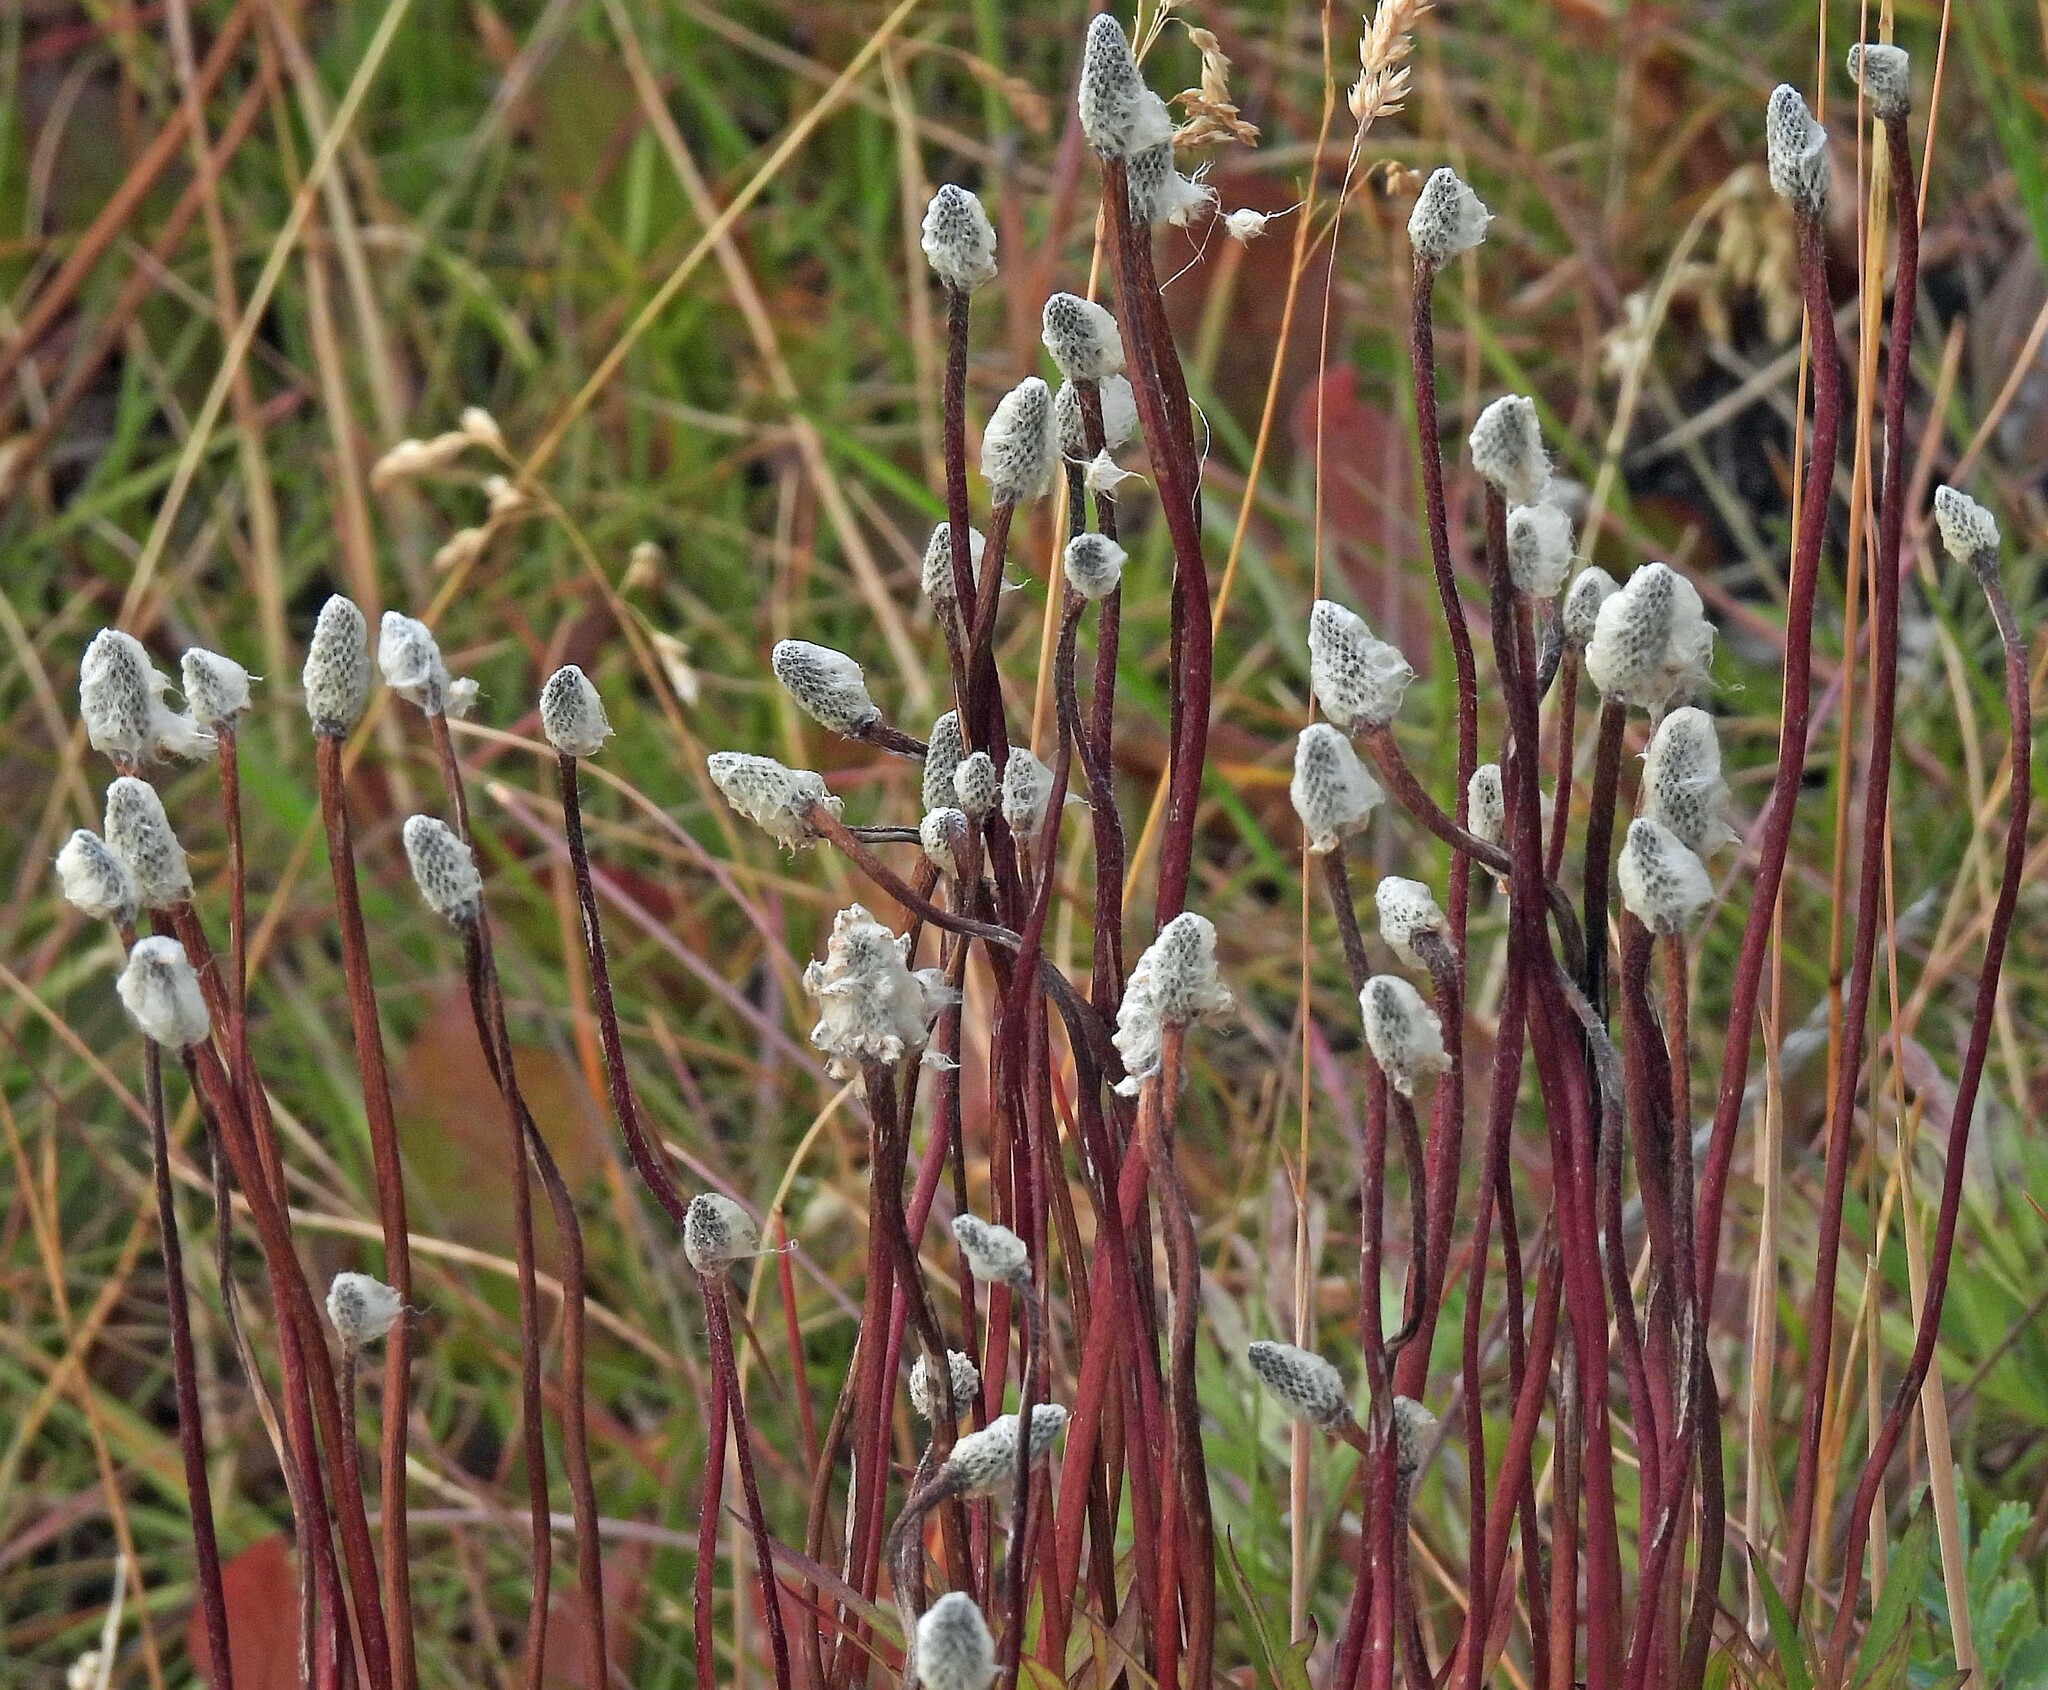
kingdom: Plantae
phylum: Tracheophyta
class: Magnoliopsida
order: Ranunculales
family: Ranunculaceae
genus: Anemone
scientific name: Anemone multifida
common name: Bird's-foot anemone
